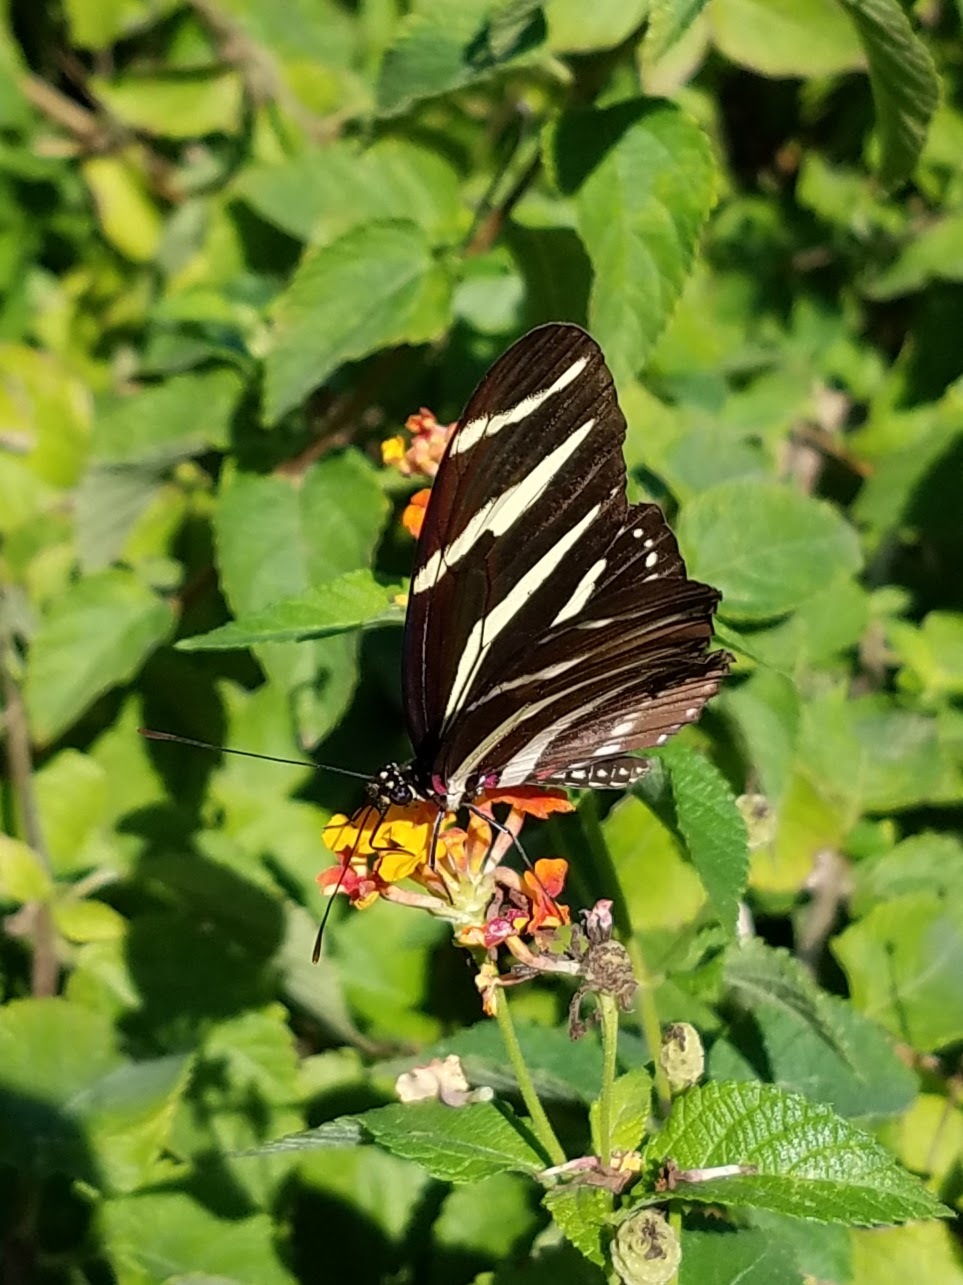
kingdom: Animalia
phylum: Arthropoda
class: Insecta
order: Lepidoptera
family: Nymphalidae
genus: Heliconius
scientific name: Heliconius charithonia
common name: Zebra long wing
